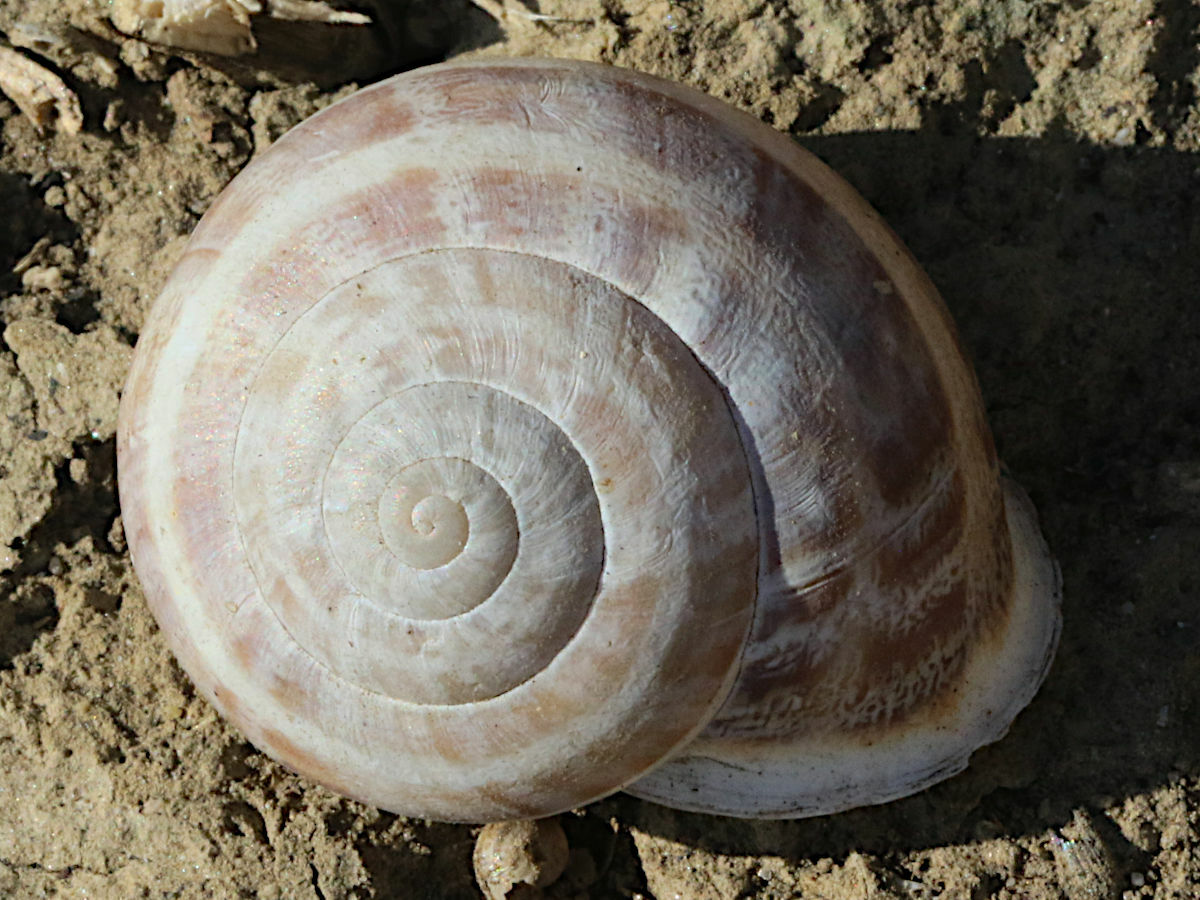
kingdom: Animalia
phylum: Mollusca
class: Gastropoda
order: Stylommatophora
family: Helicidae
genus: Eobania
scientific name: Eobania vermiculata
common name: Chocolateband snail
